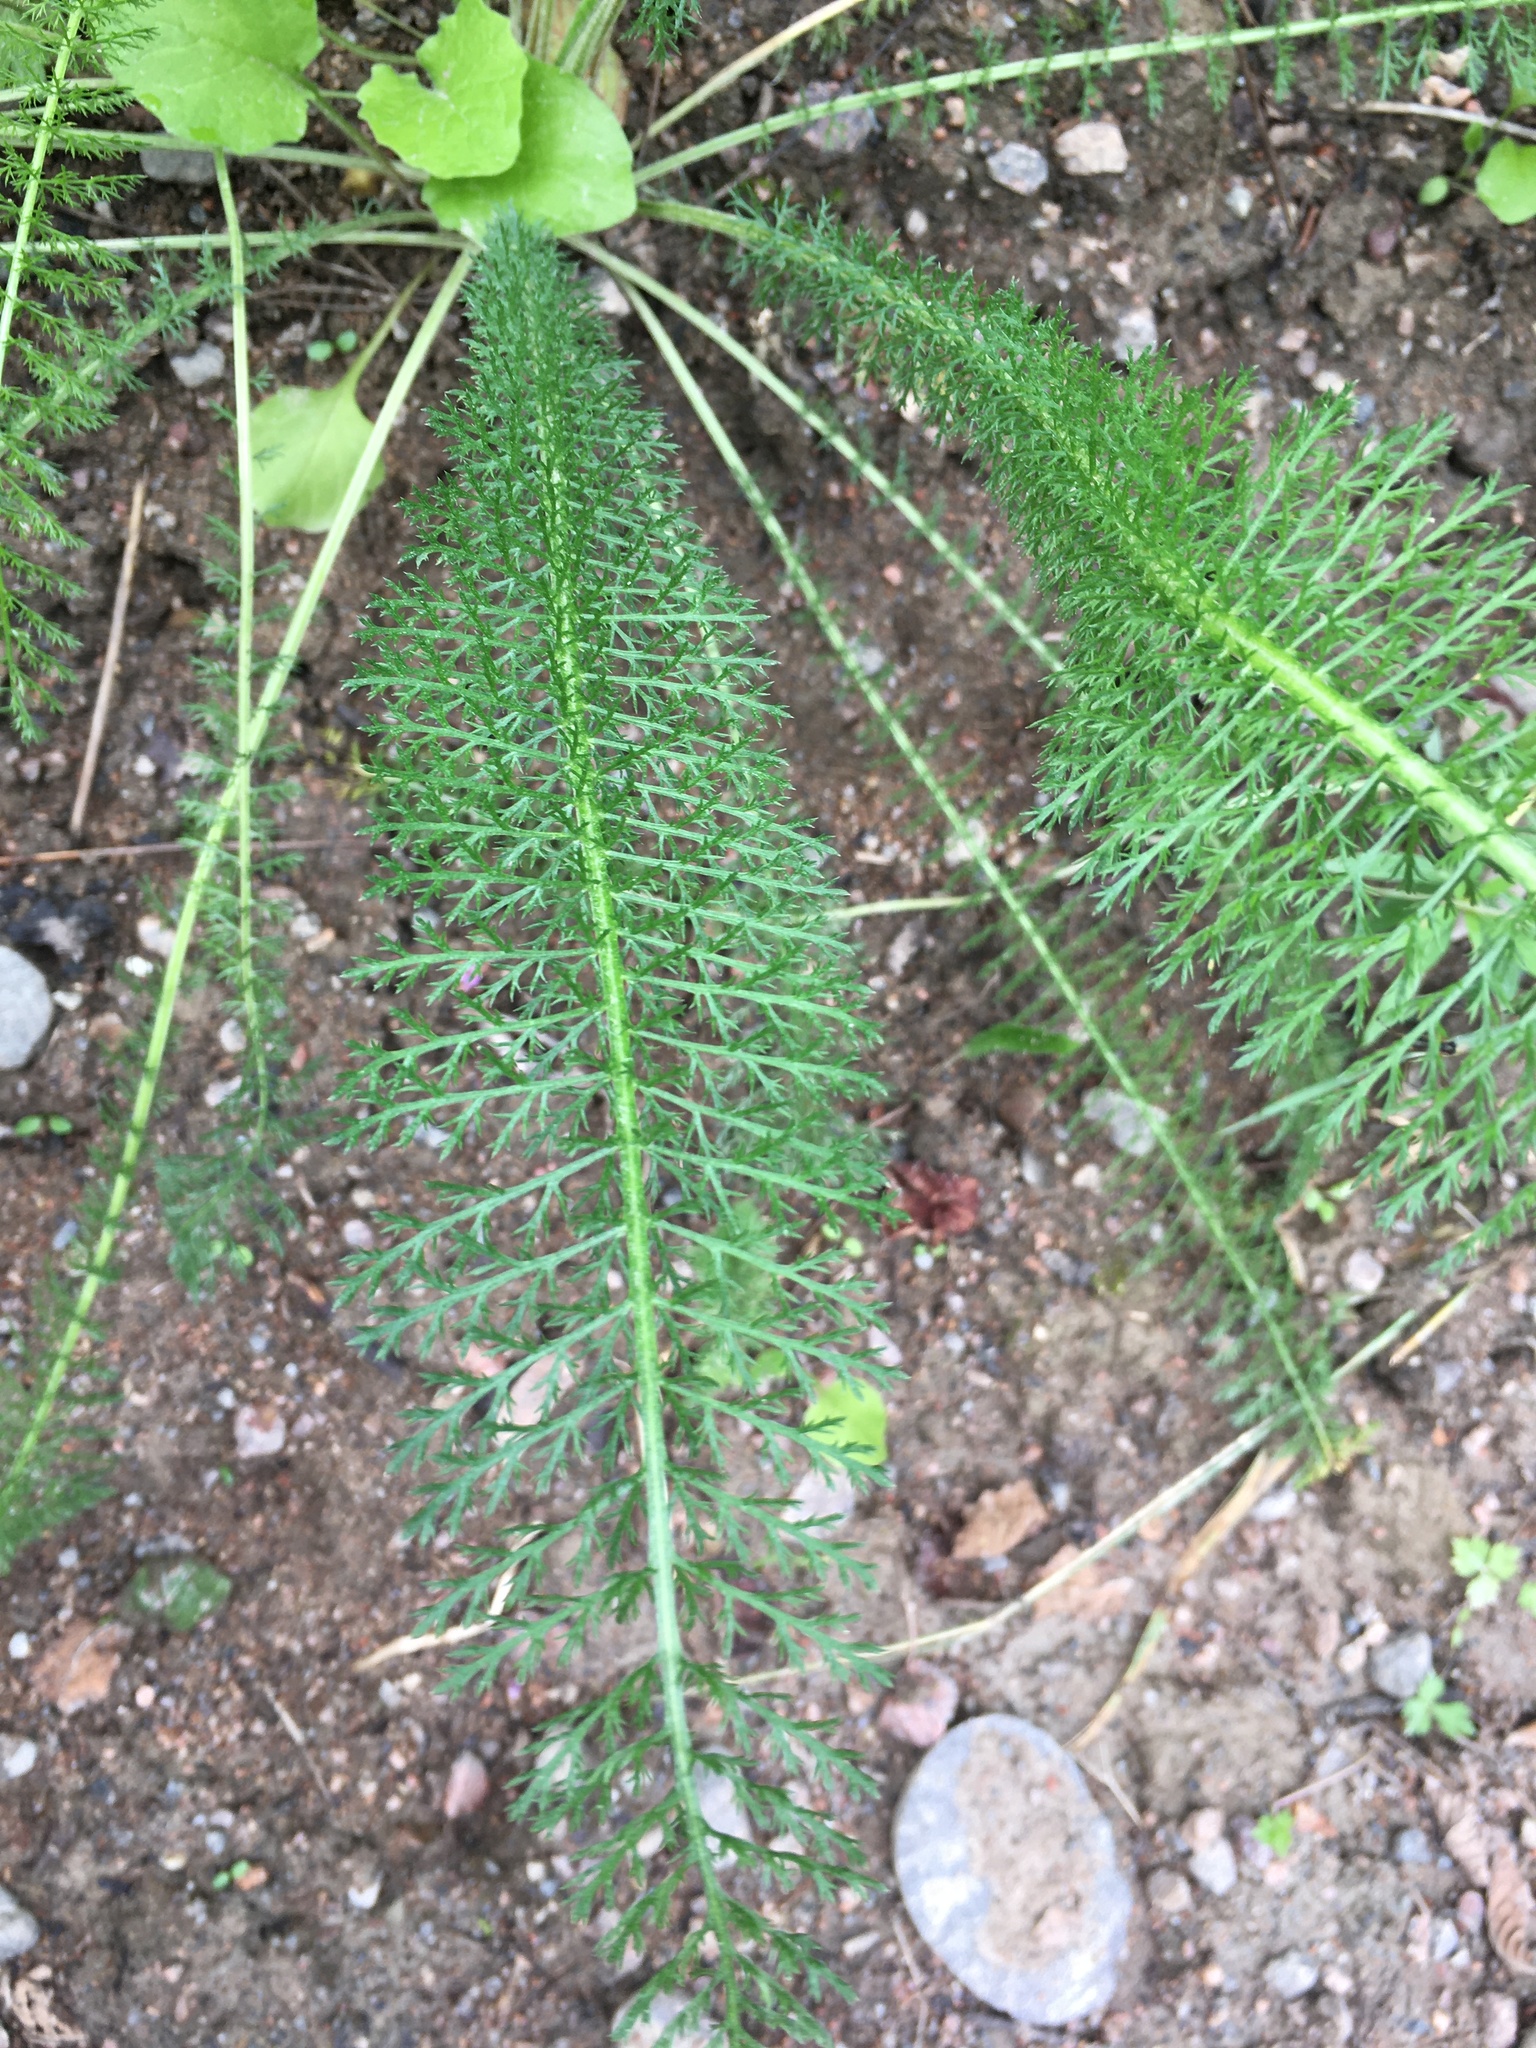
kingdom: Plantae
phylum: Tracheophyta
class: Magnoliopsida
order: Asterales
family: Asteraceae
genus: Achillea
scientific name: Achillea millefolium
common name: Yarrow
